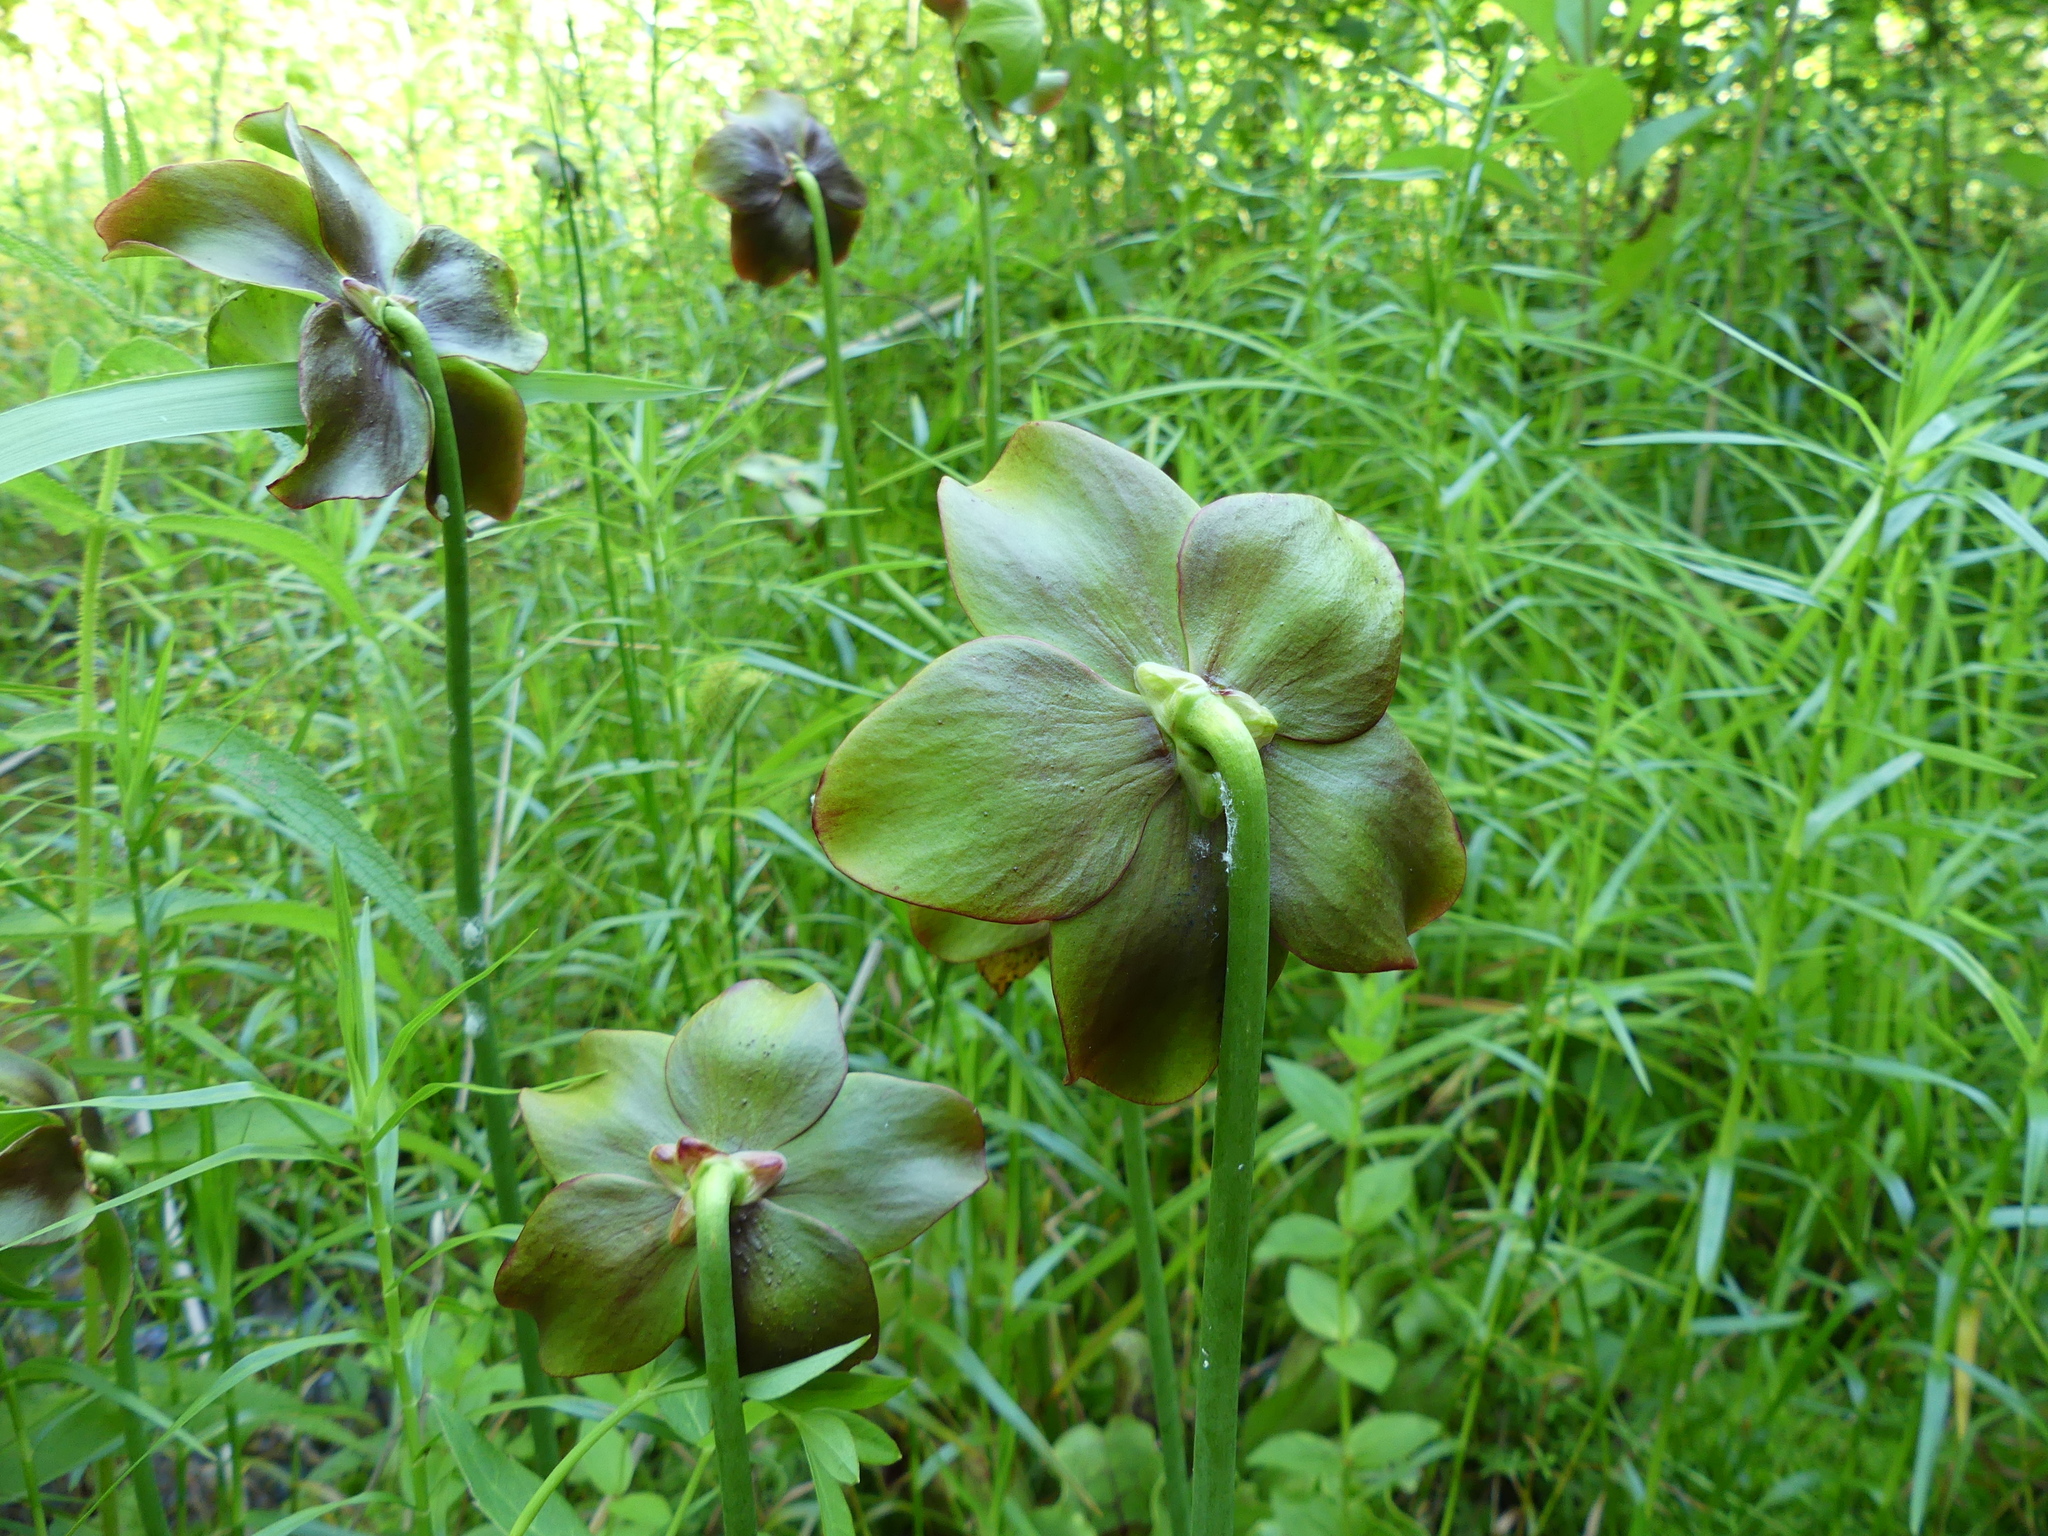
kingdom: Plantae
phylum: Tracheophyta
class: Magnoliopsida
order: Ericales
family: Sarraceniaceae
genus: Sarracenia
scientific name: Sarracenia purpurea
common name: Pitcherplant
